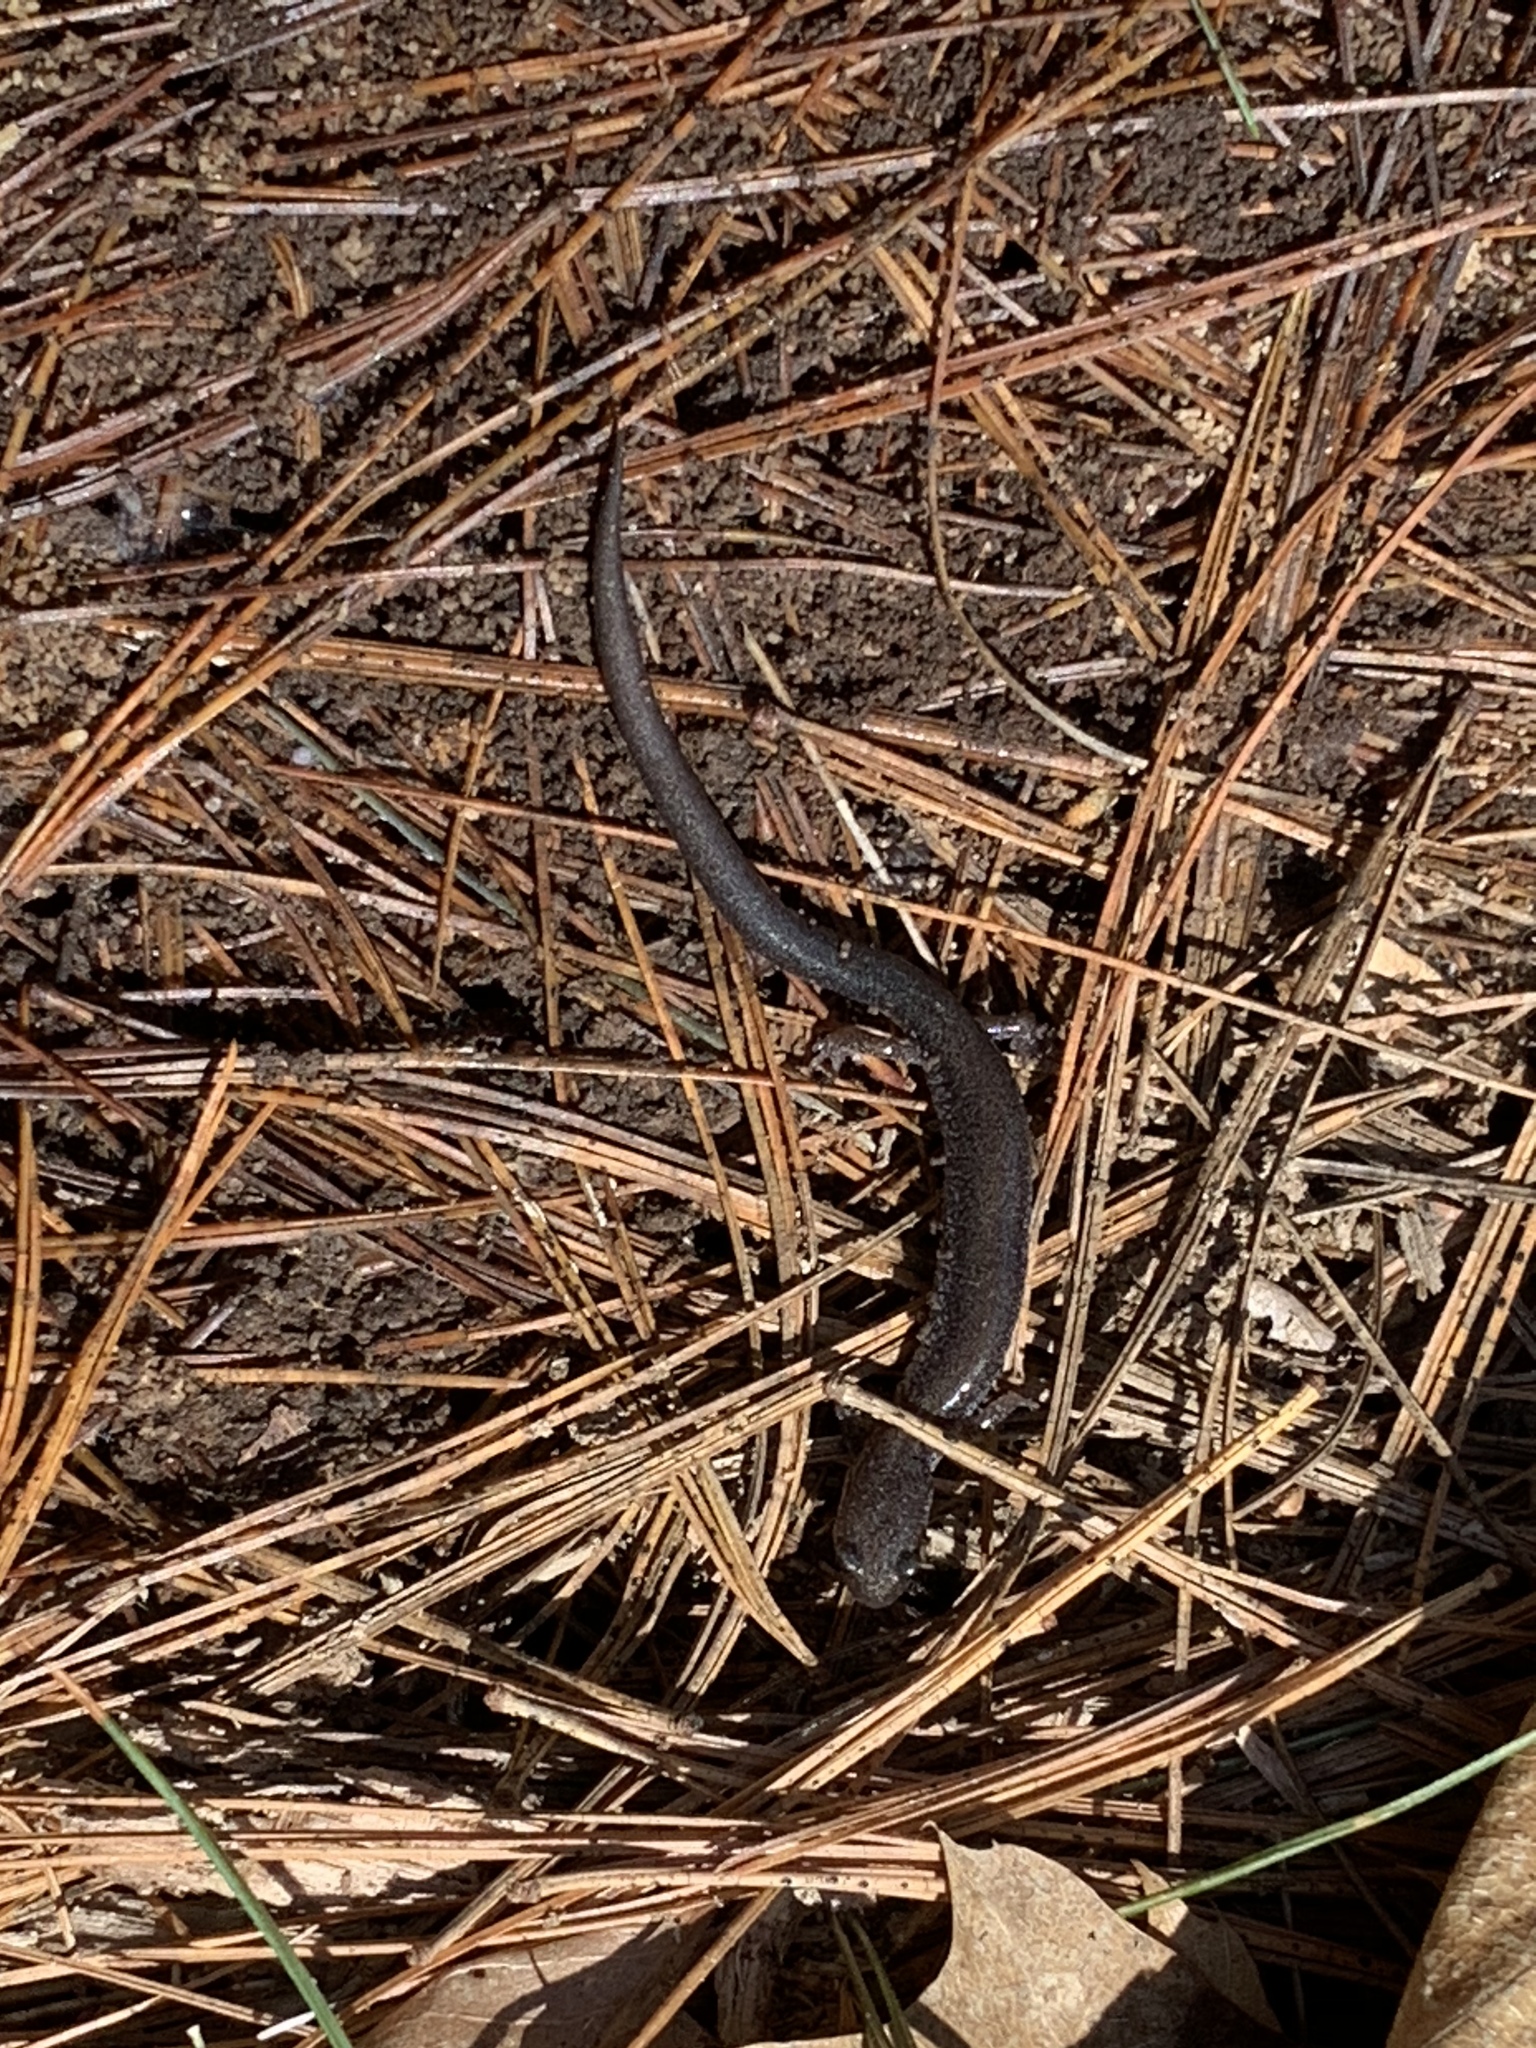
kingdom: Animalia
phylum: Chordata
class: Amphibia
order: Caudata
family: Plethodontidae
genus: Plethodon
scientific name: Plethodon cinereus
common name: Redback salamander
